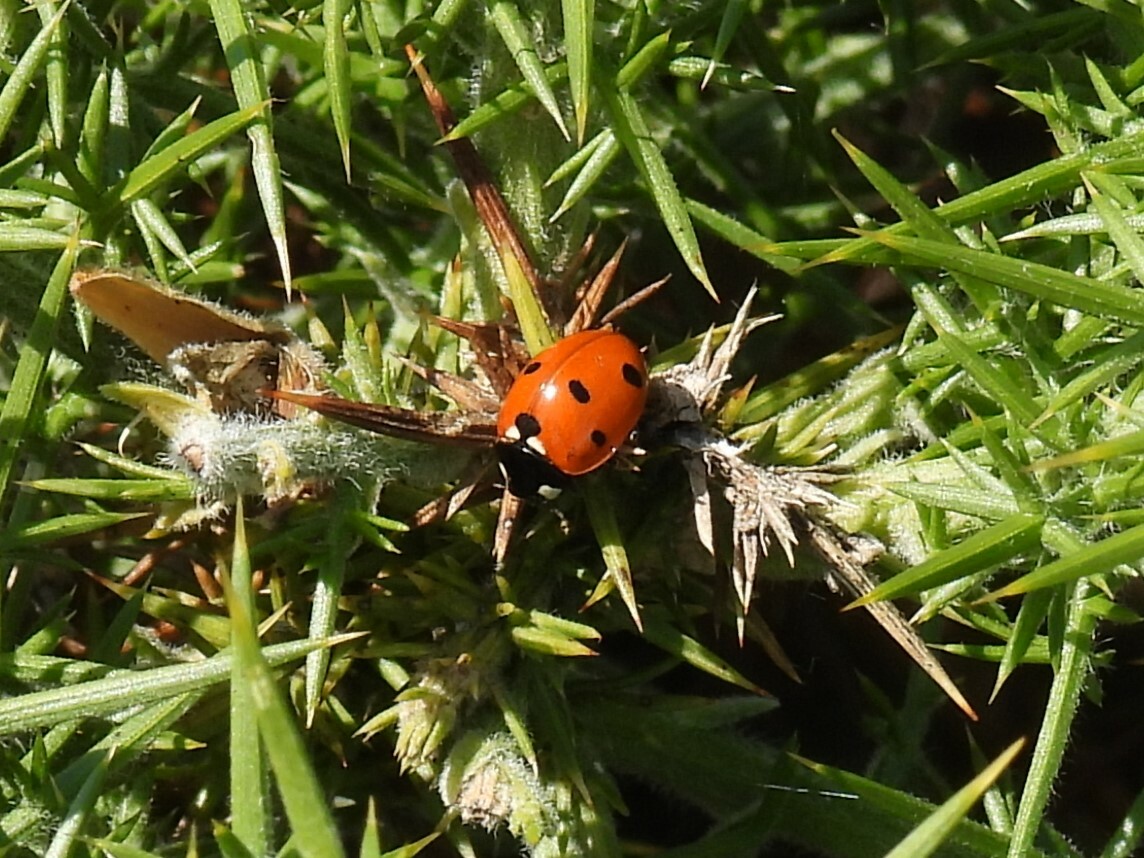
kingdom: Animalia
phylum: Arthropoda
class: Insecta
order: Coleoptera
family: Coccinellidae
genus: Coccinella
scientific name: Coccinella septempunctata
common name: Sevenspotted lady beetle
